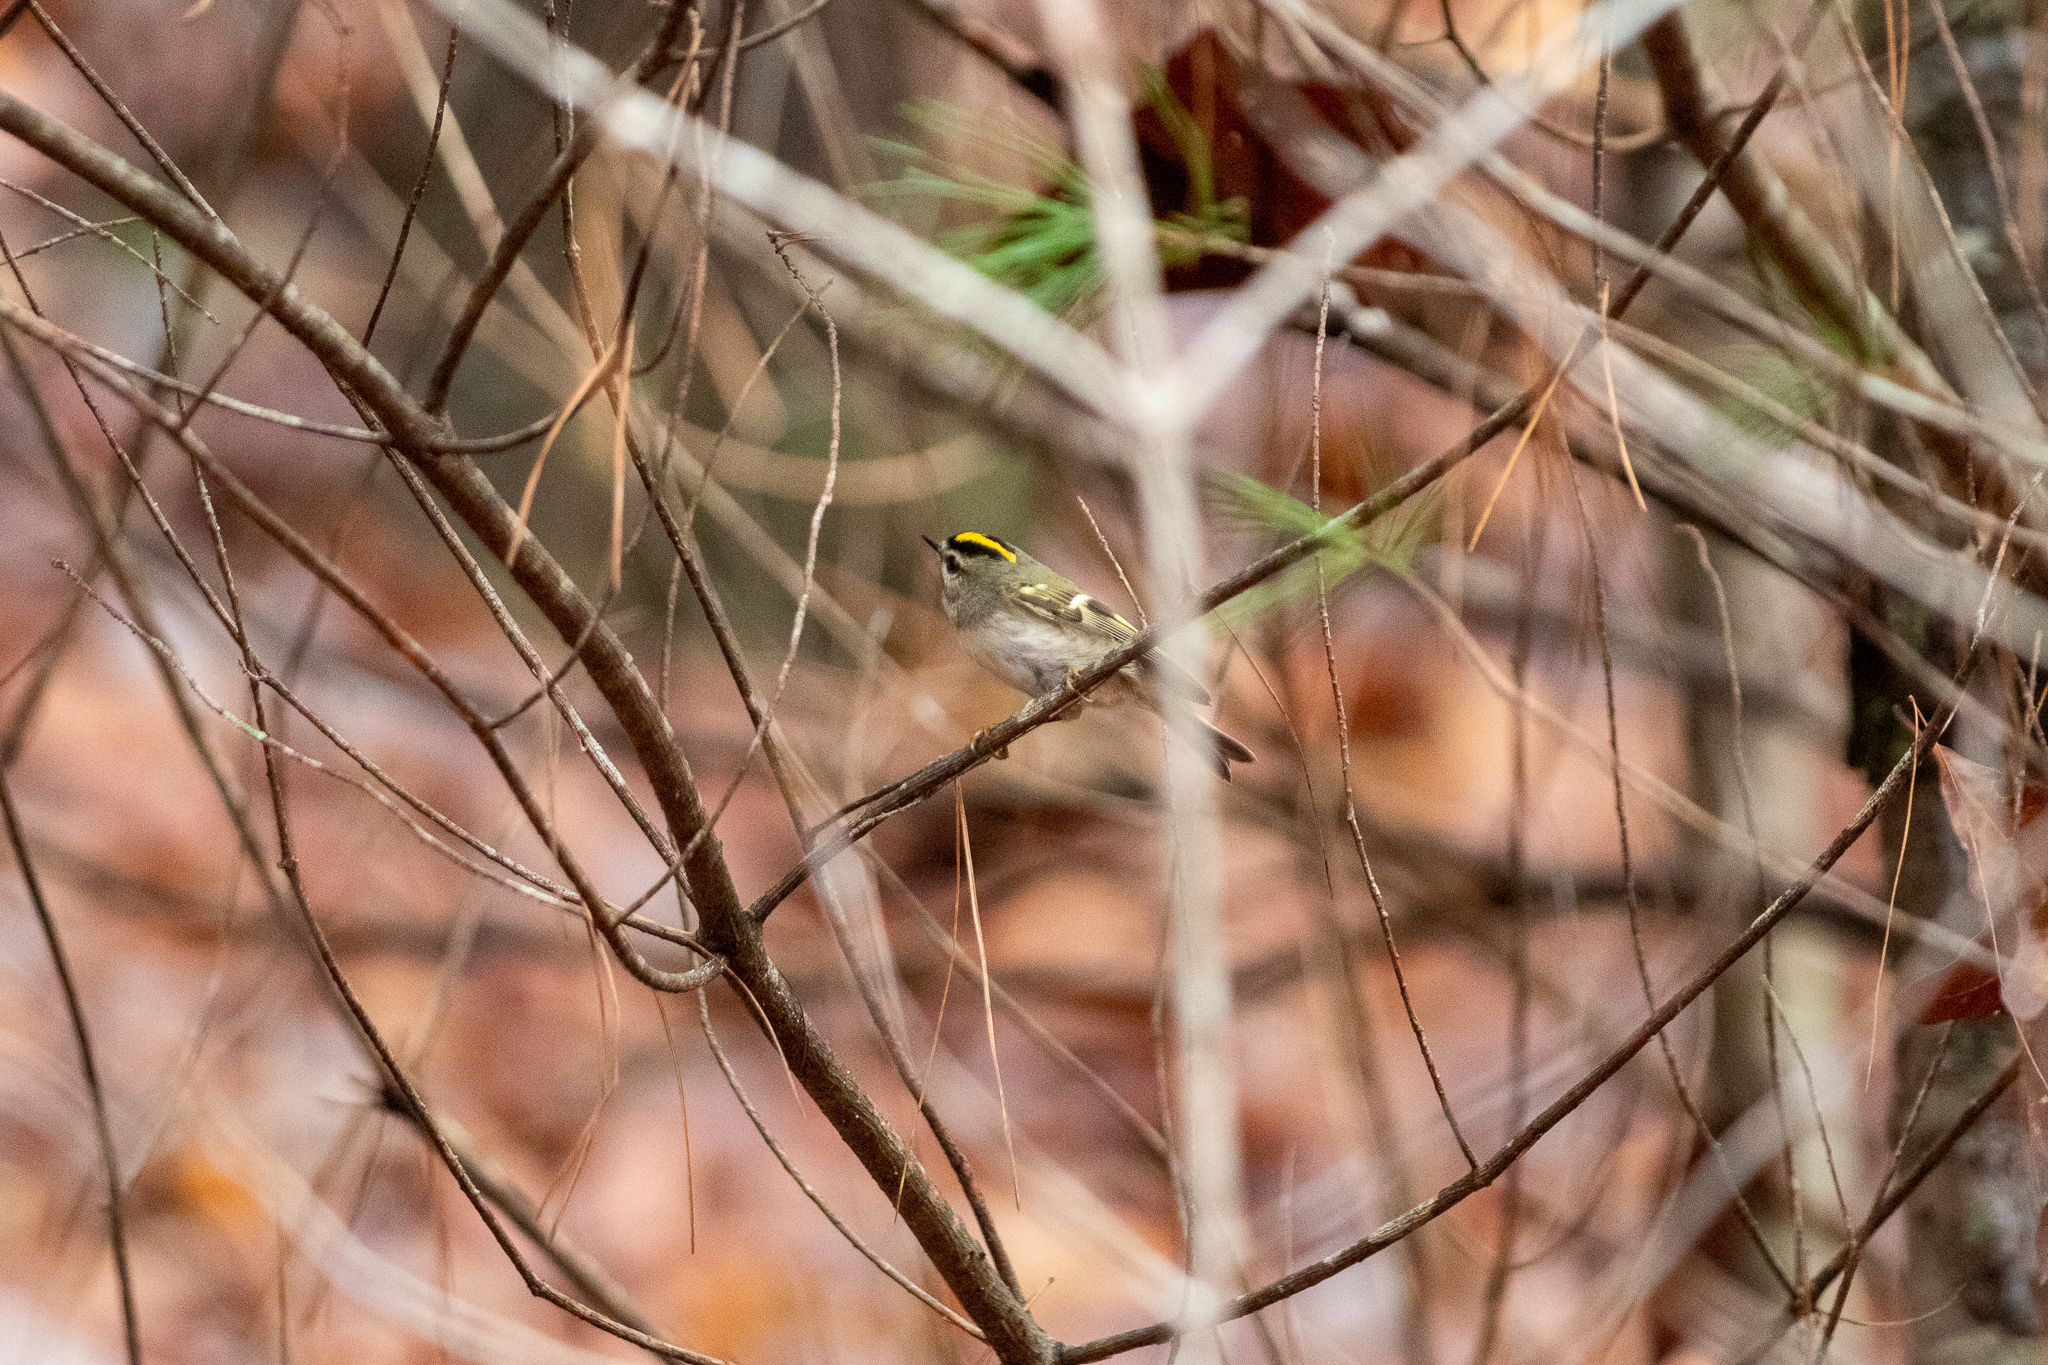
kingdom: Animalia
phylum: Chordata
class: Aves
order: Passeriformes
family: Regulidae
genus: Regulus
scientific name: Regulus satrapa
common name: Golden-crowned kinglet
